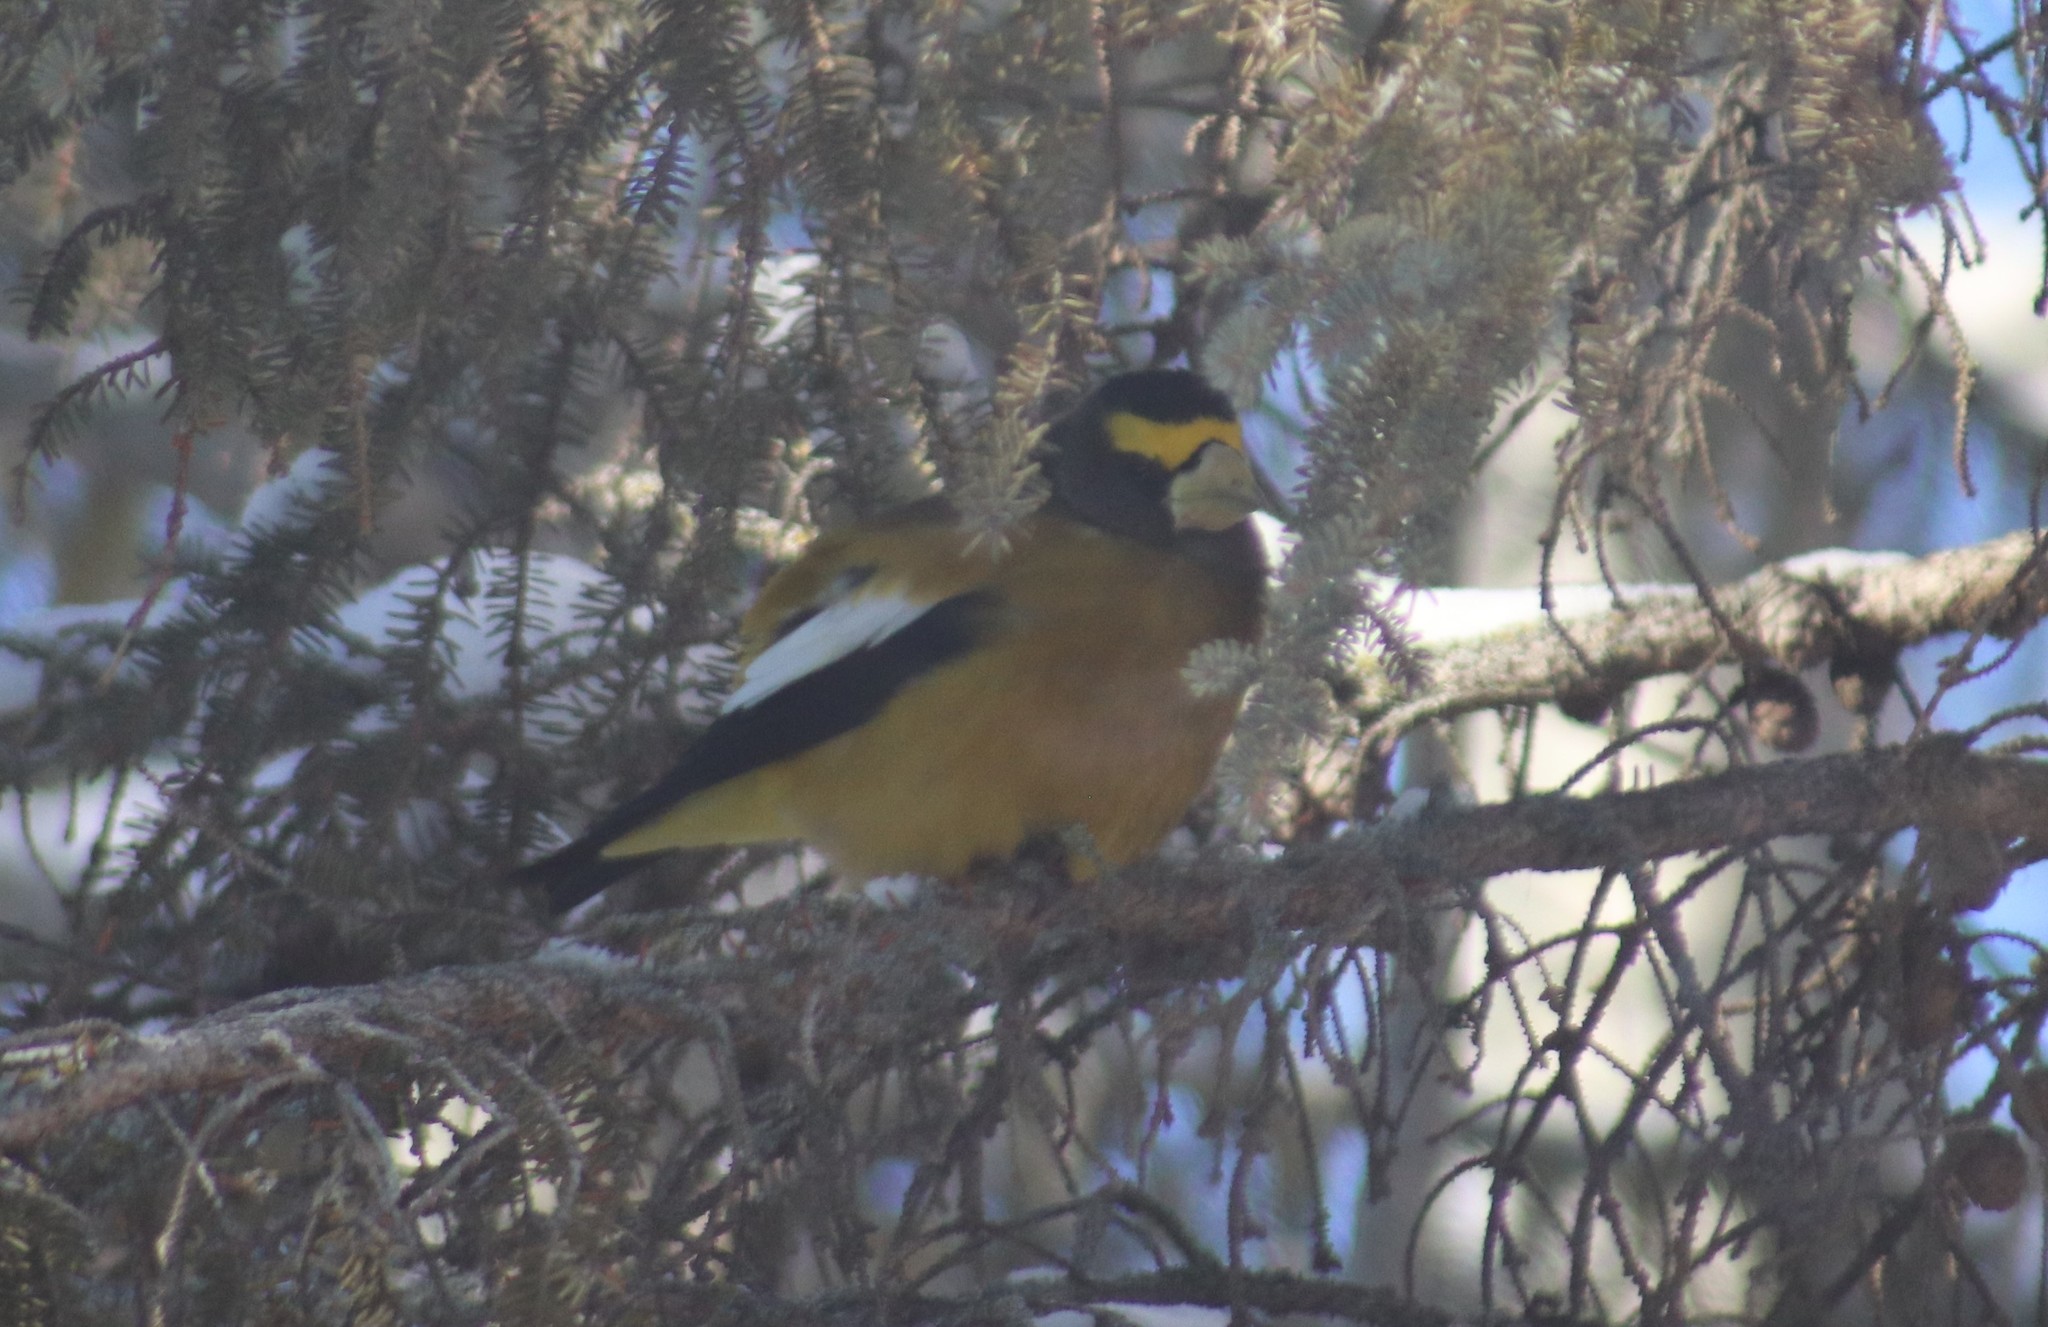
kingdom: Animalia
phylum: Chordata
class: Aves
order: Passeriformes
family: Fringillidae
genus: Hesperiphona
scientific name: Hesperiphona vespertina
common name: Evening grosbeak
